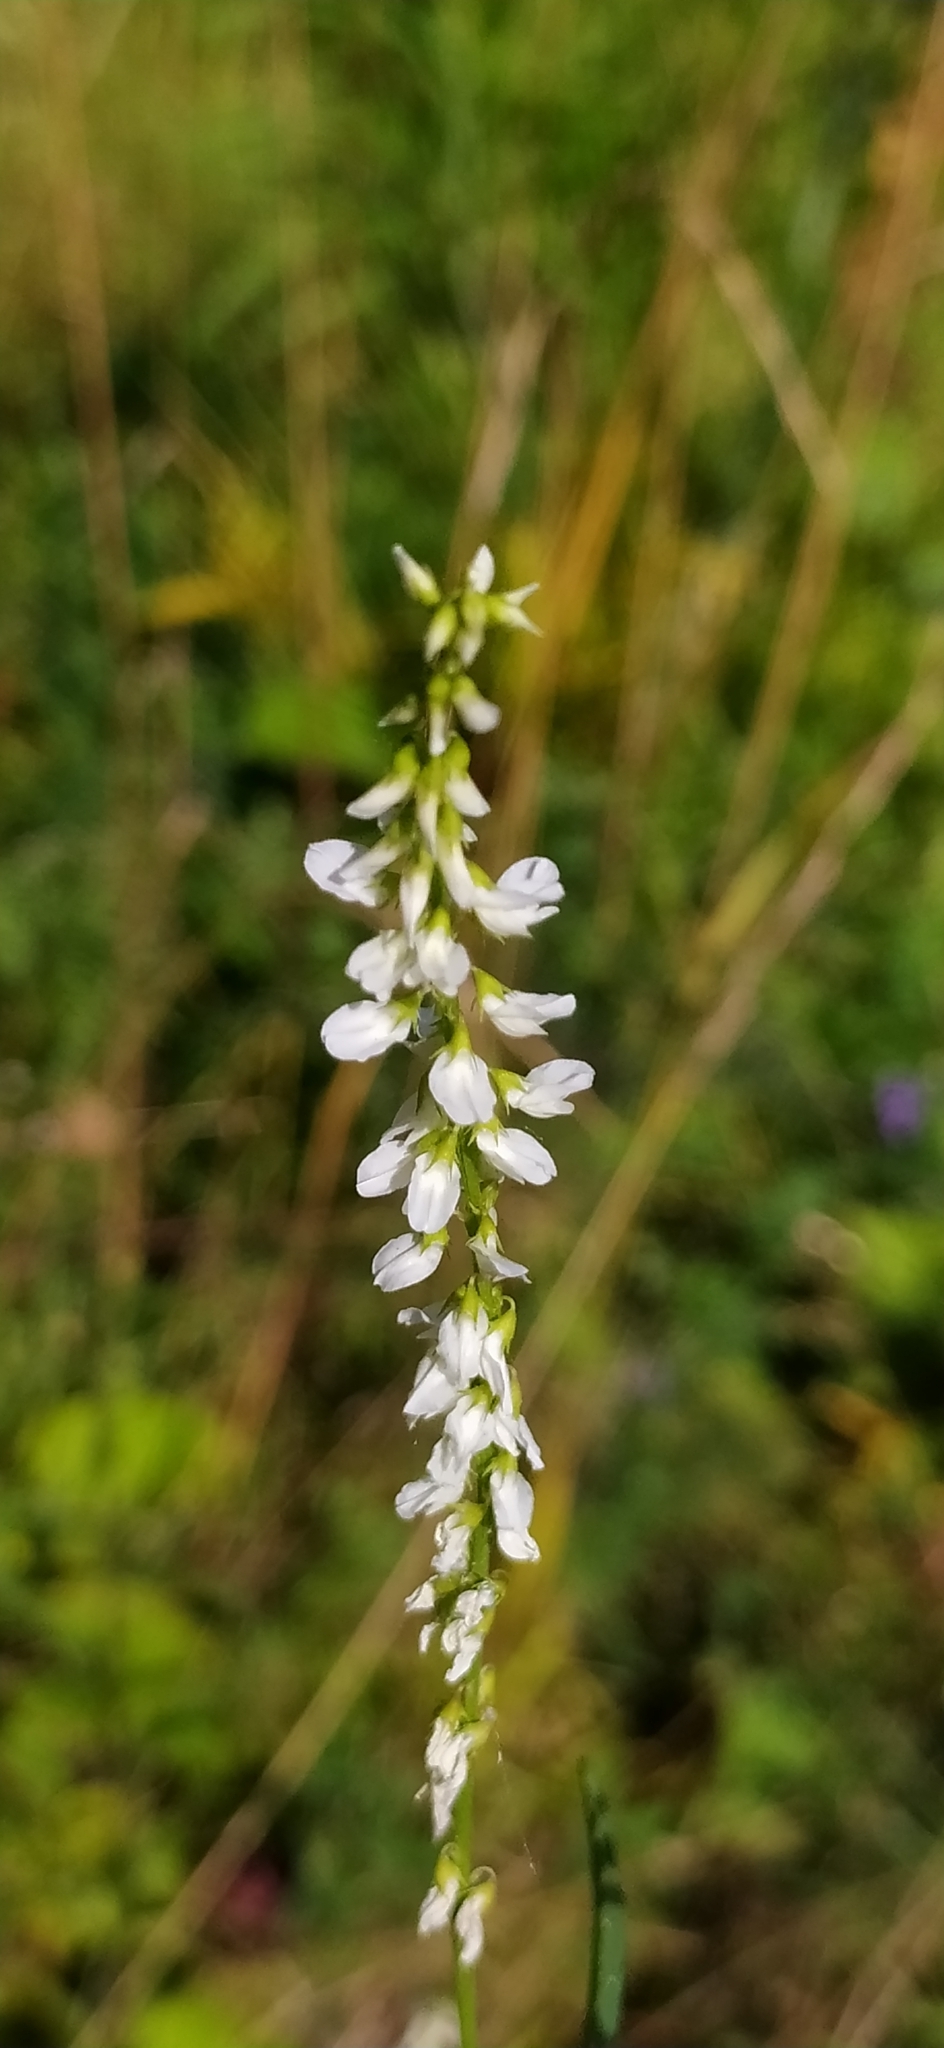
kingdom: Plantae
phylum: Tracheophyta
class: Magnoliopsida
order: Fabales
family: Fabaceae
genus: Melilotus
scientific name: Melilotus albus
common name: White melilot
